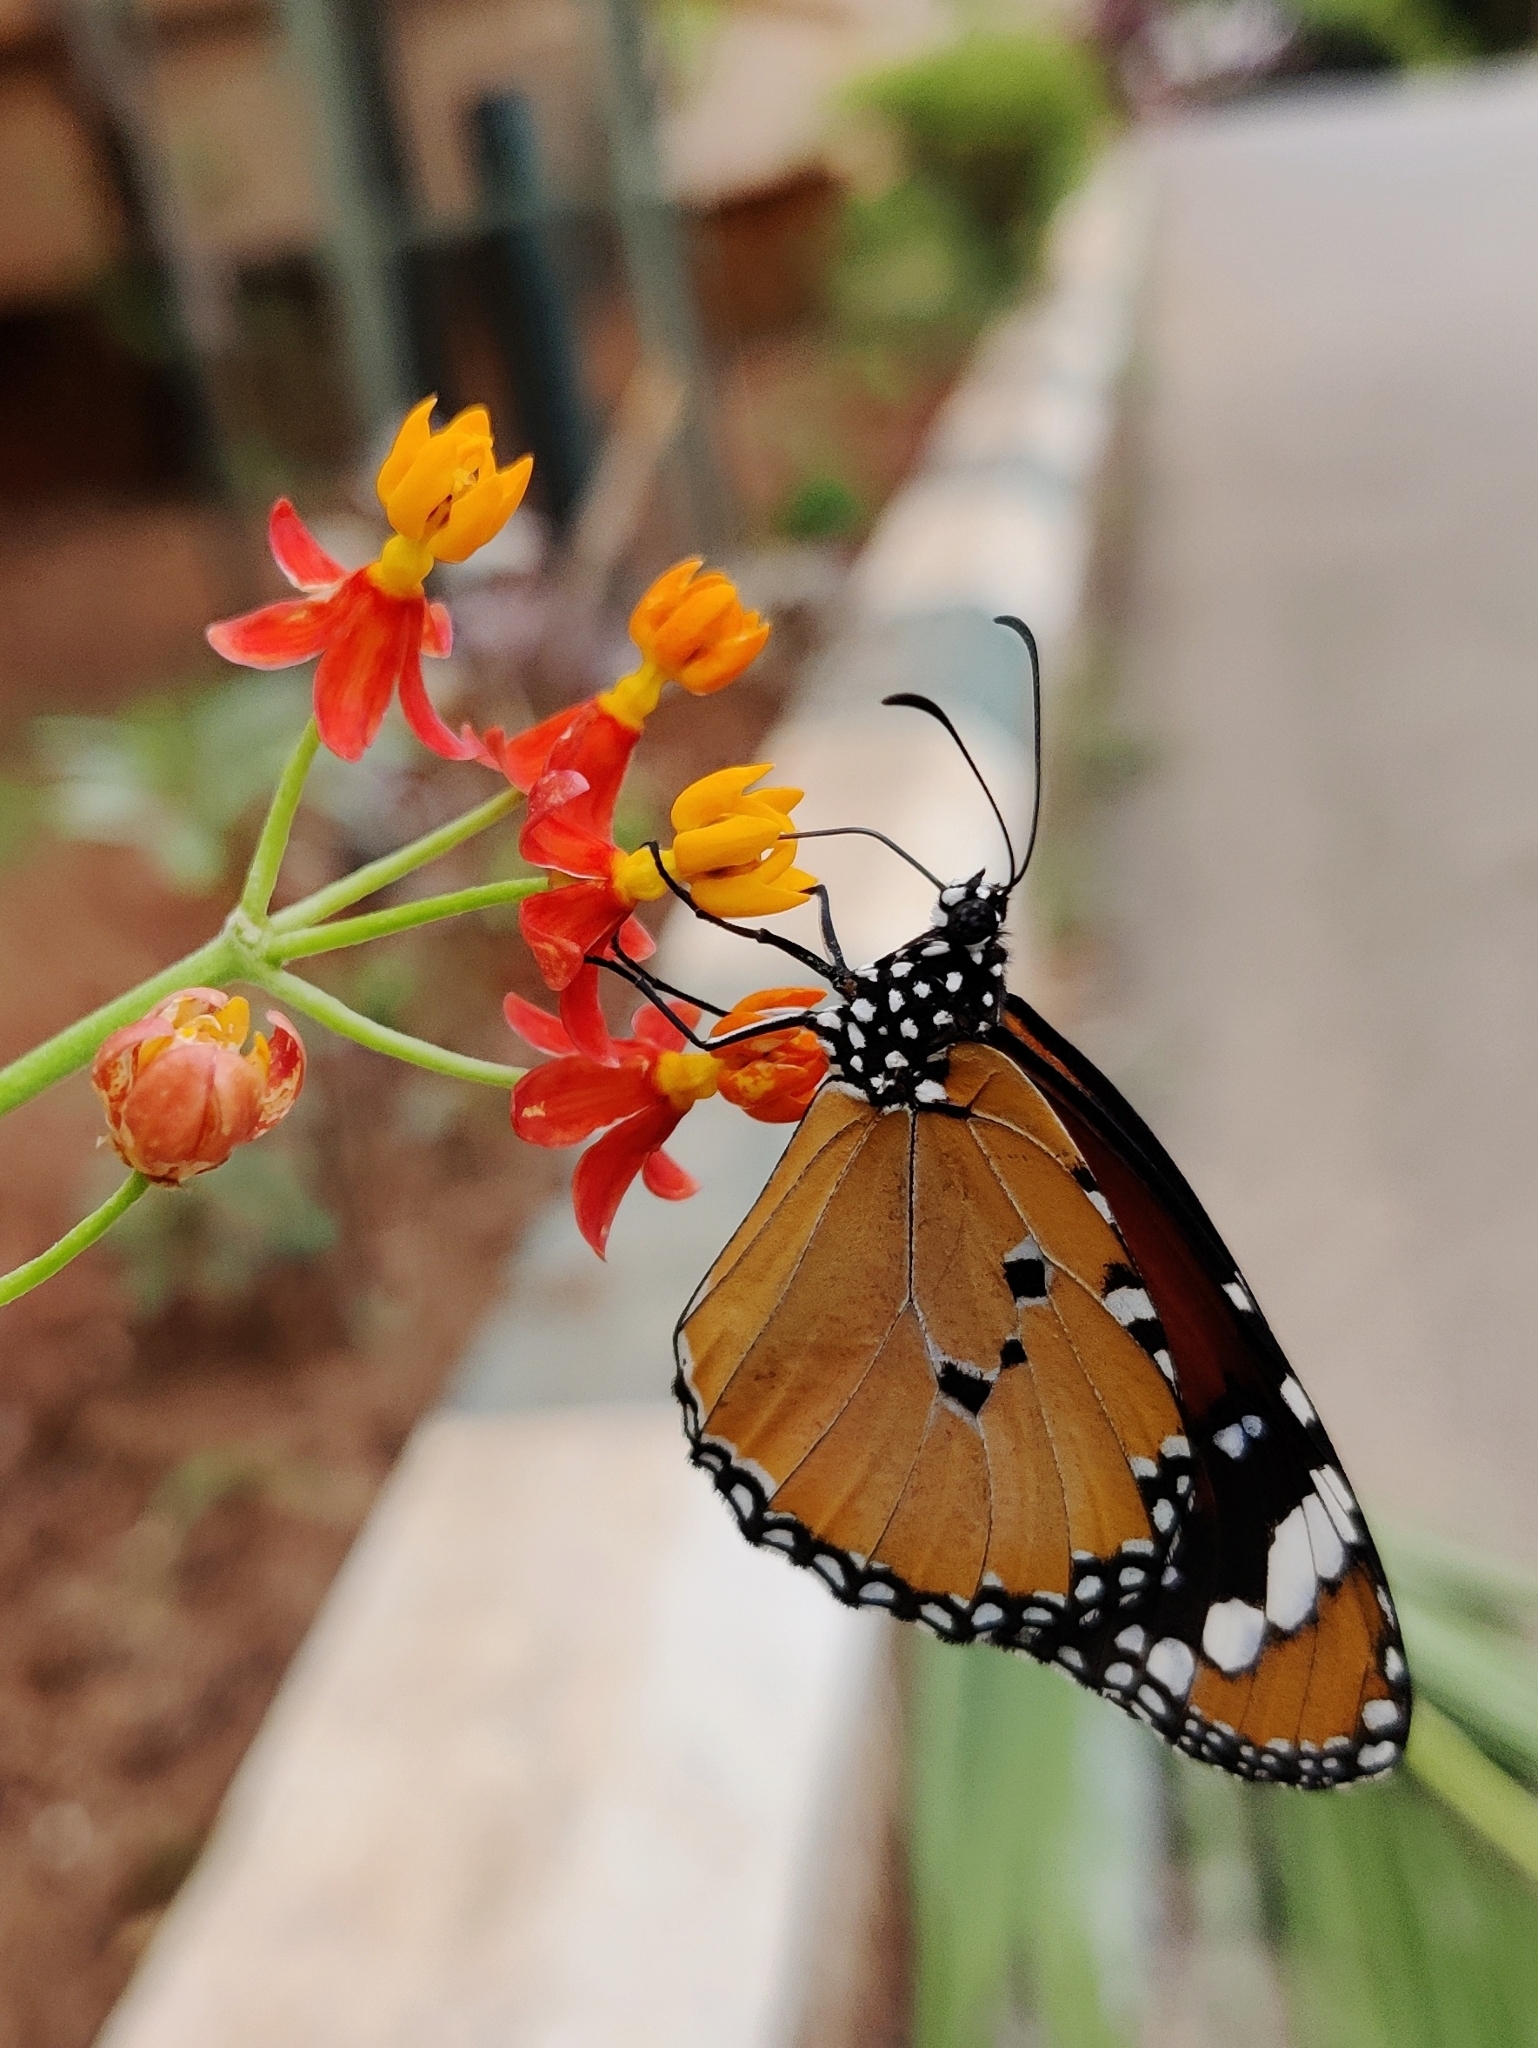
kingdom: Animalia
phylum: Arthropoda
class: Insecta
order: Lepidoptera
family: Nymphalidae
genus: Danaus
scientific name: Danaus chrysippus
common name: Plain tiger
